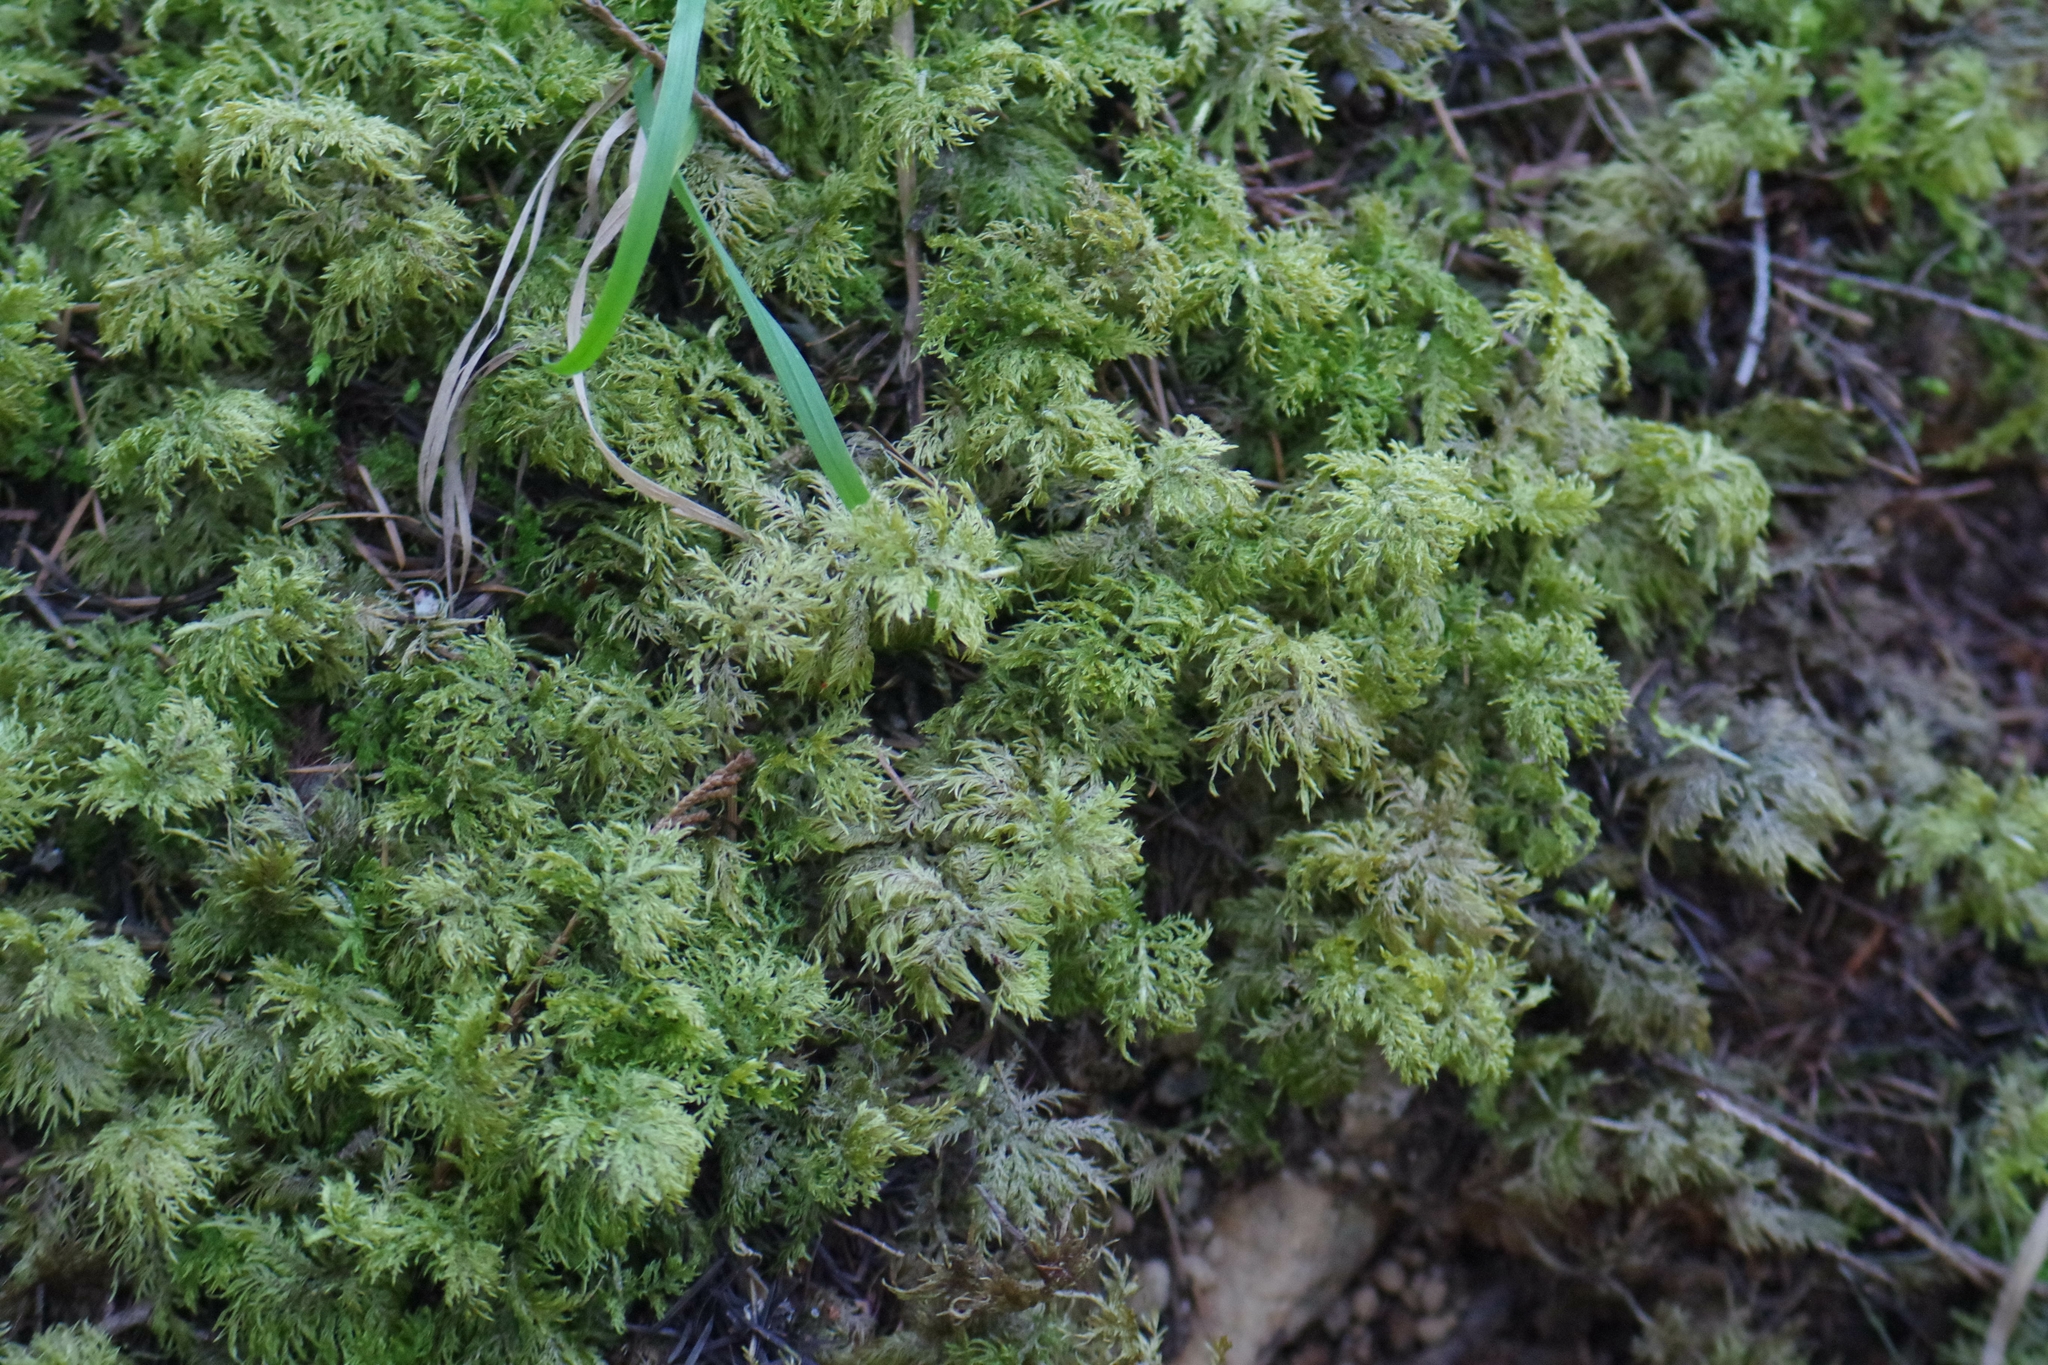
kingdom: Plantae
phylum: Bryophyta
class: Bryopsida
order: Hypnales
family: Hylocomiaceae
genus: Hylocomium
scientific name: Hylocomium splendens
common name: Stairstep moss
